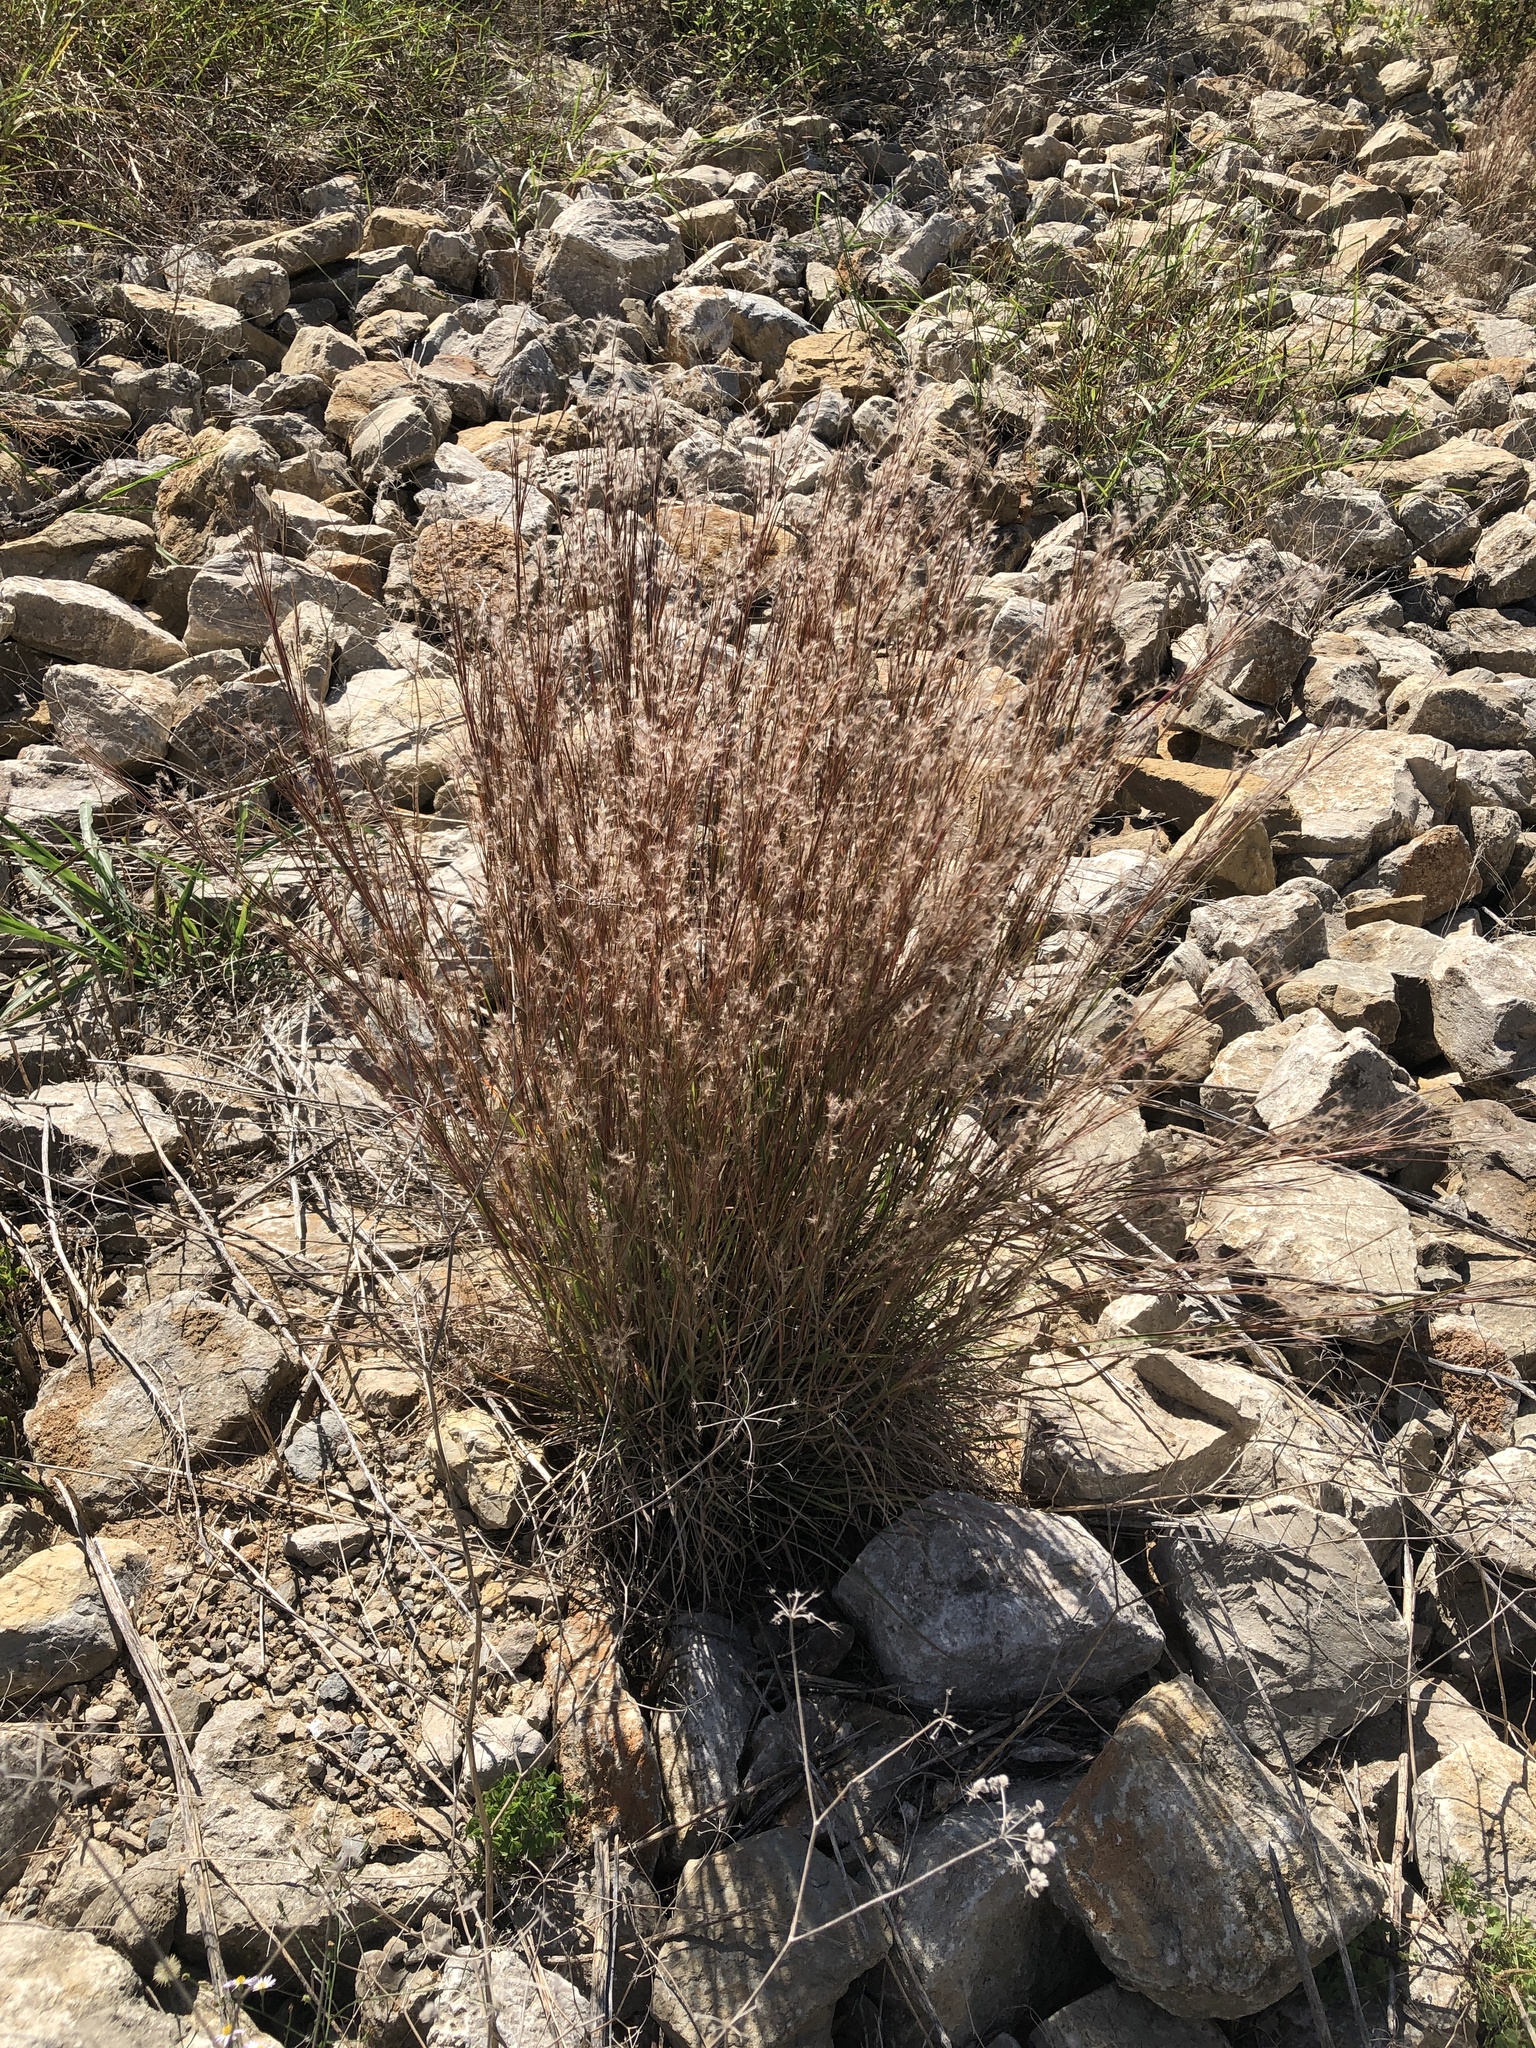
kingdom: Plantae
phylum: Tracheophyta
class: Liliopsida
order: Poales
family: Poaceae
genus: Schizachyrium
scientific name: Schizachyrium scoparium
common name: Little bluestem
